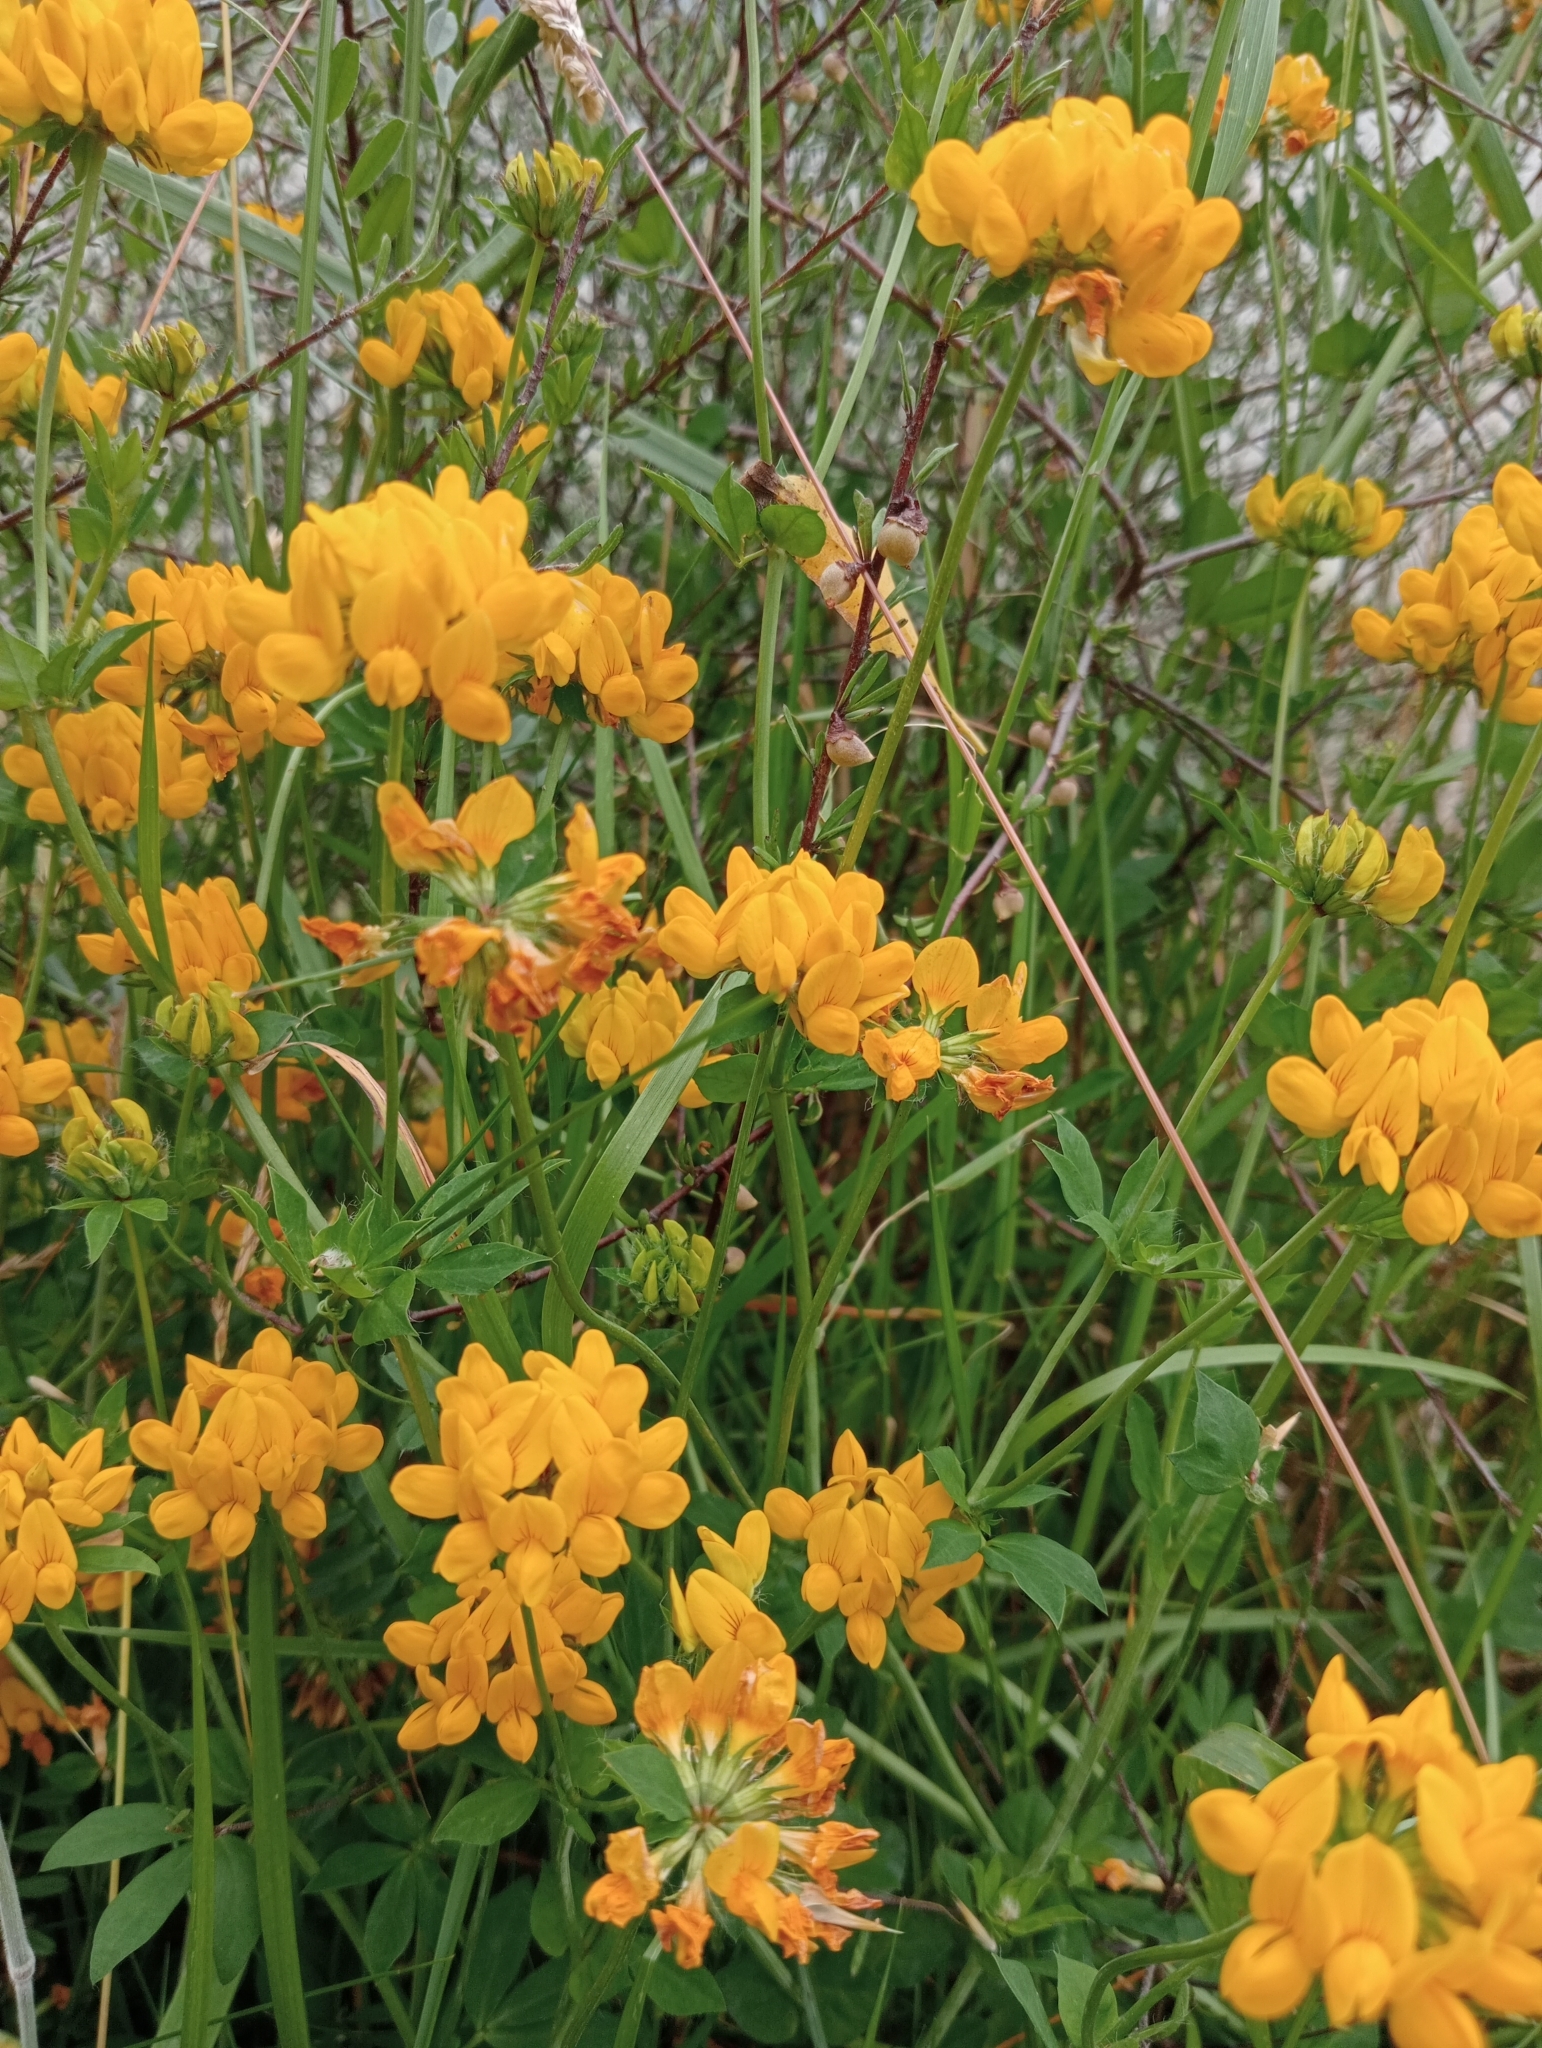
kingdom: Plantae
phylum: Tracheophyta
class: Magnoliopsida
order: Fabales
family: Fabaceae
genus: Lotus
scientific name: Lotus pedunculatus
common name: Greater birdsfoot-trefoil
